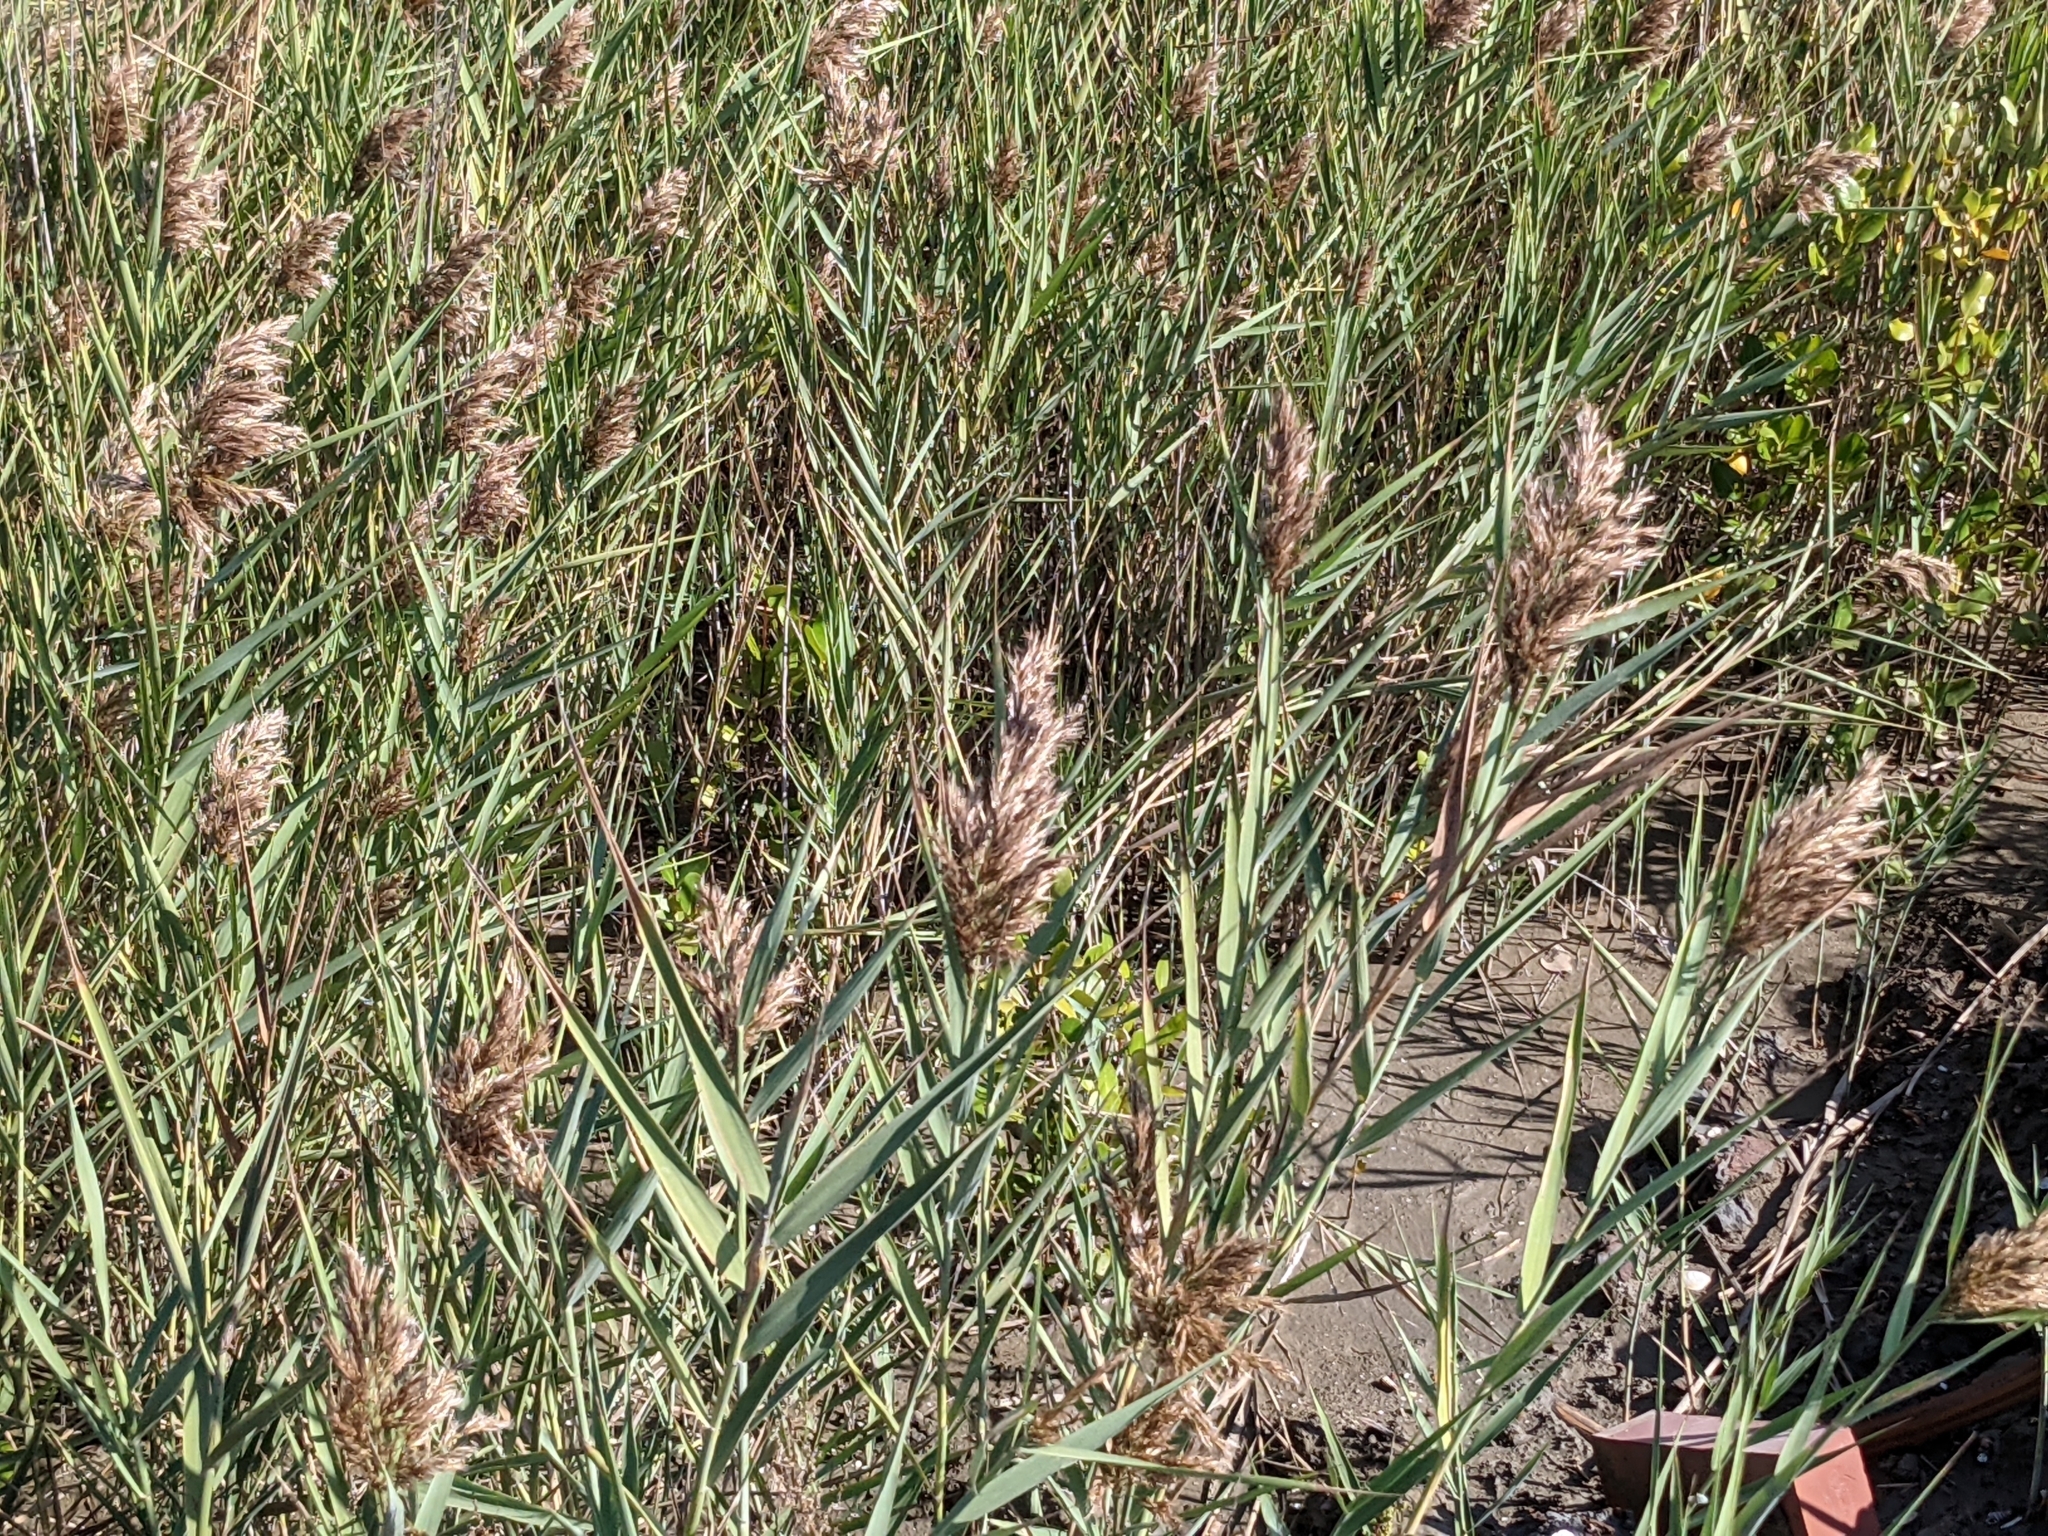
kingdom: Plantae
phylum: Tracheophyta
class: Liliopsida
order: Poales
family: Poaceae
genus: Phragmites
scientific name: Phragmites australis
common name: Common reed
